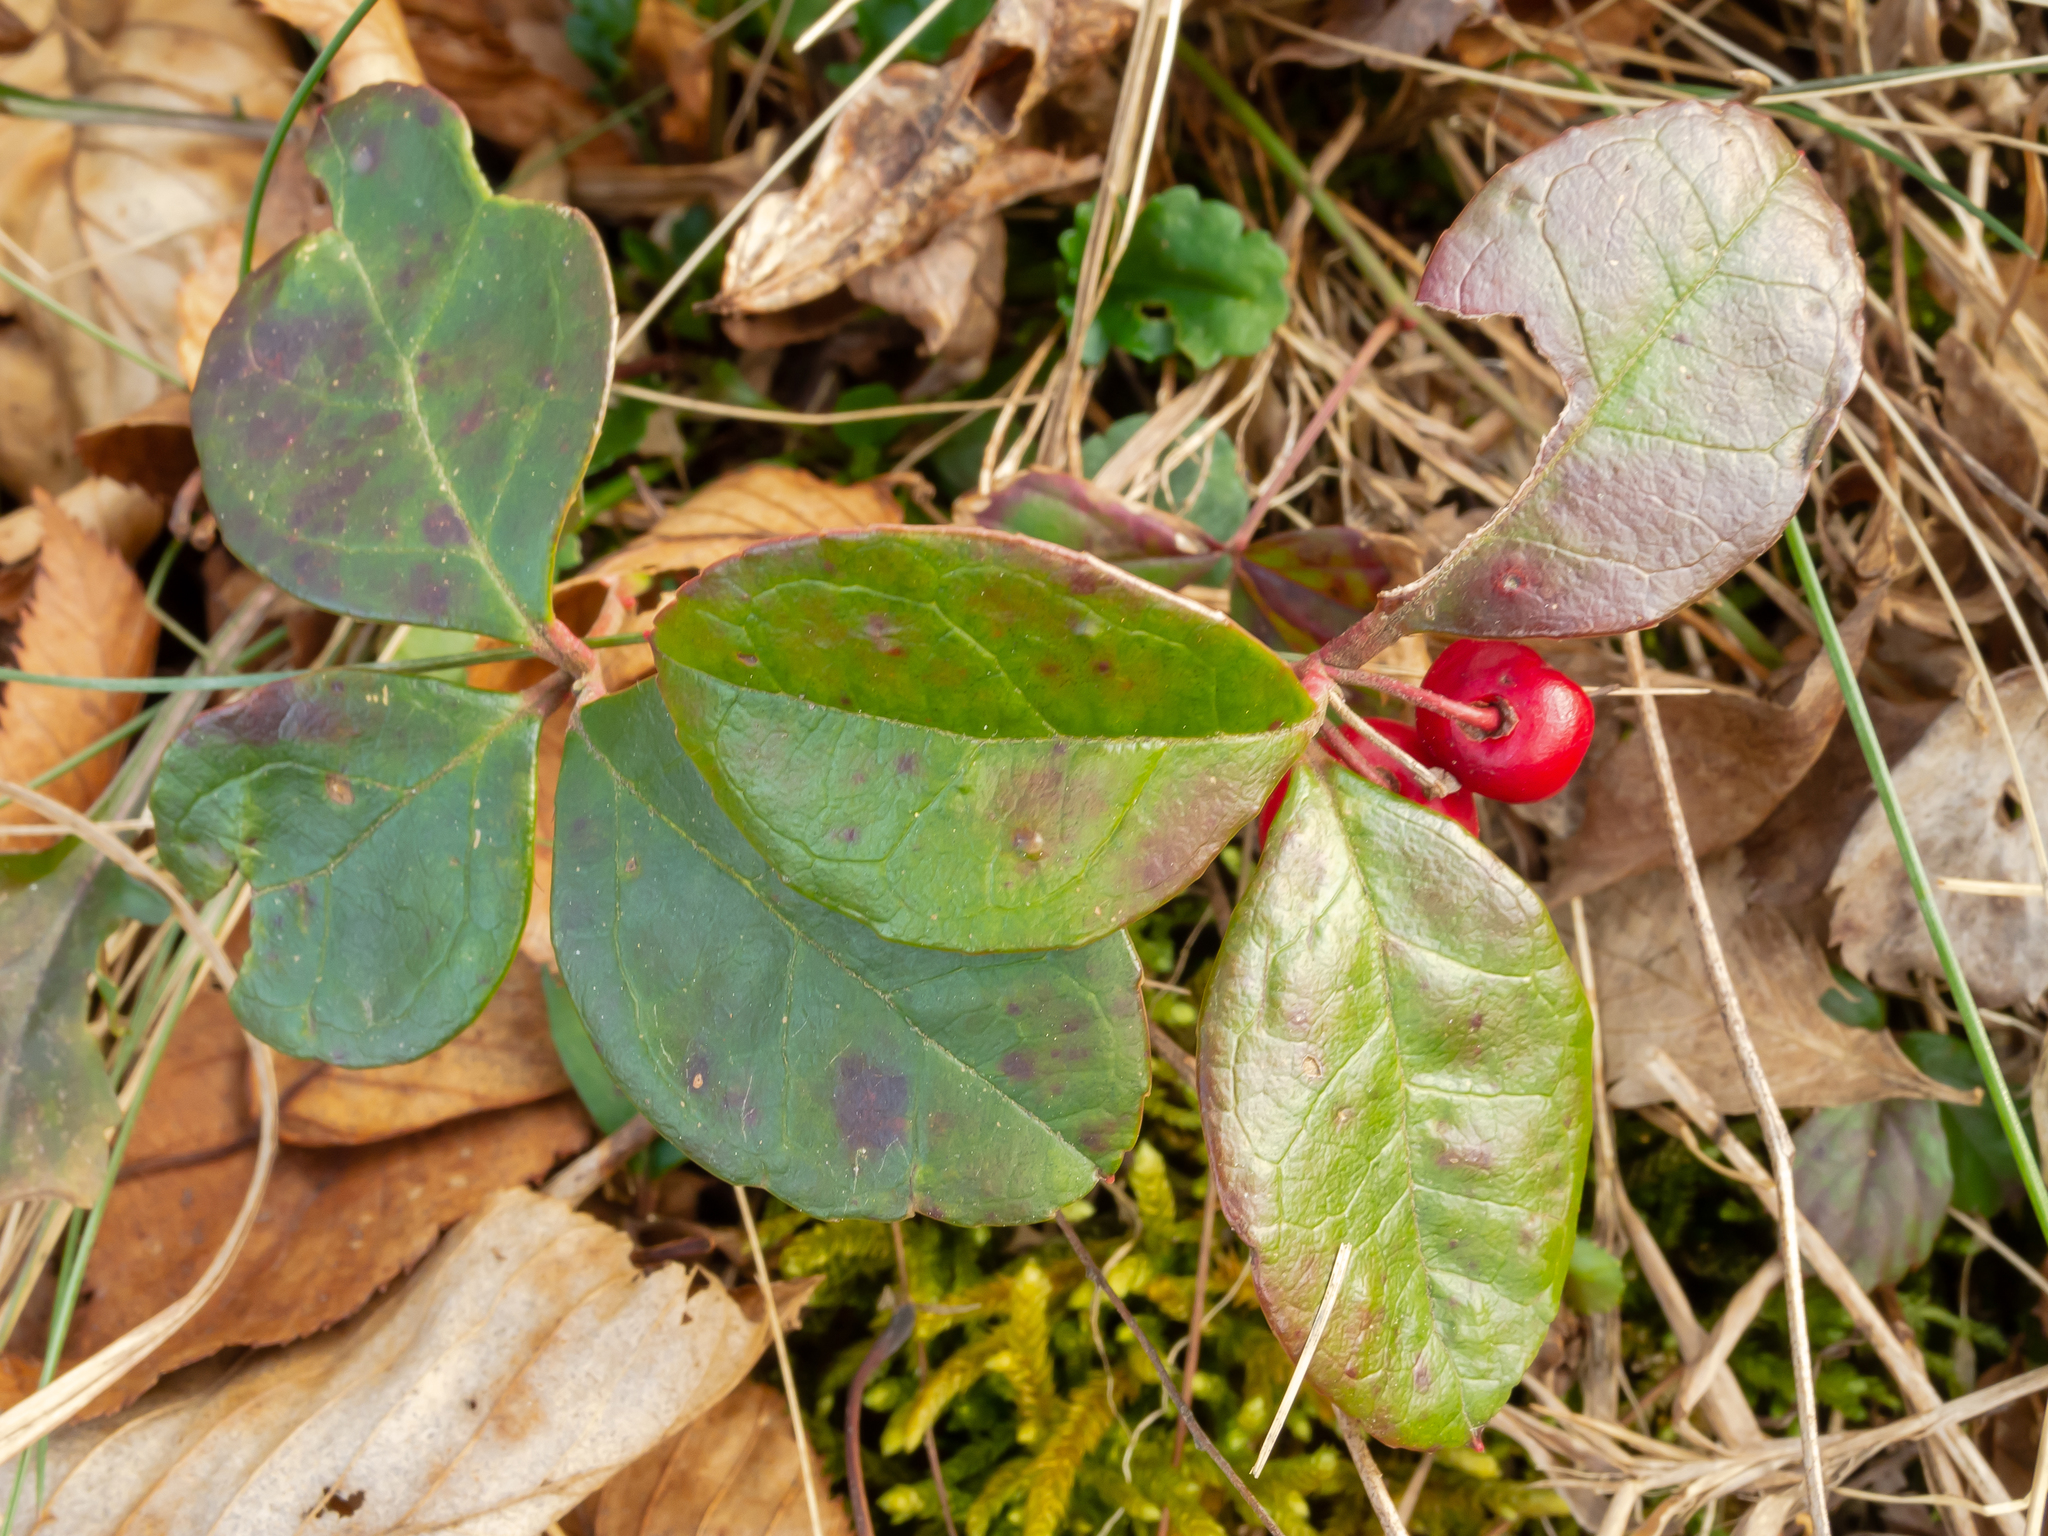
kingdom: Plantae
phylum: Tracheophyta
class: Magnoliopsida
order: Ericales
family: Ericaceae
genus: Gaultheria
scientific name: Gaultheria procumbens
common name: Checkerberry
